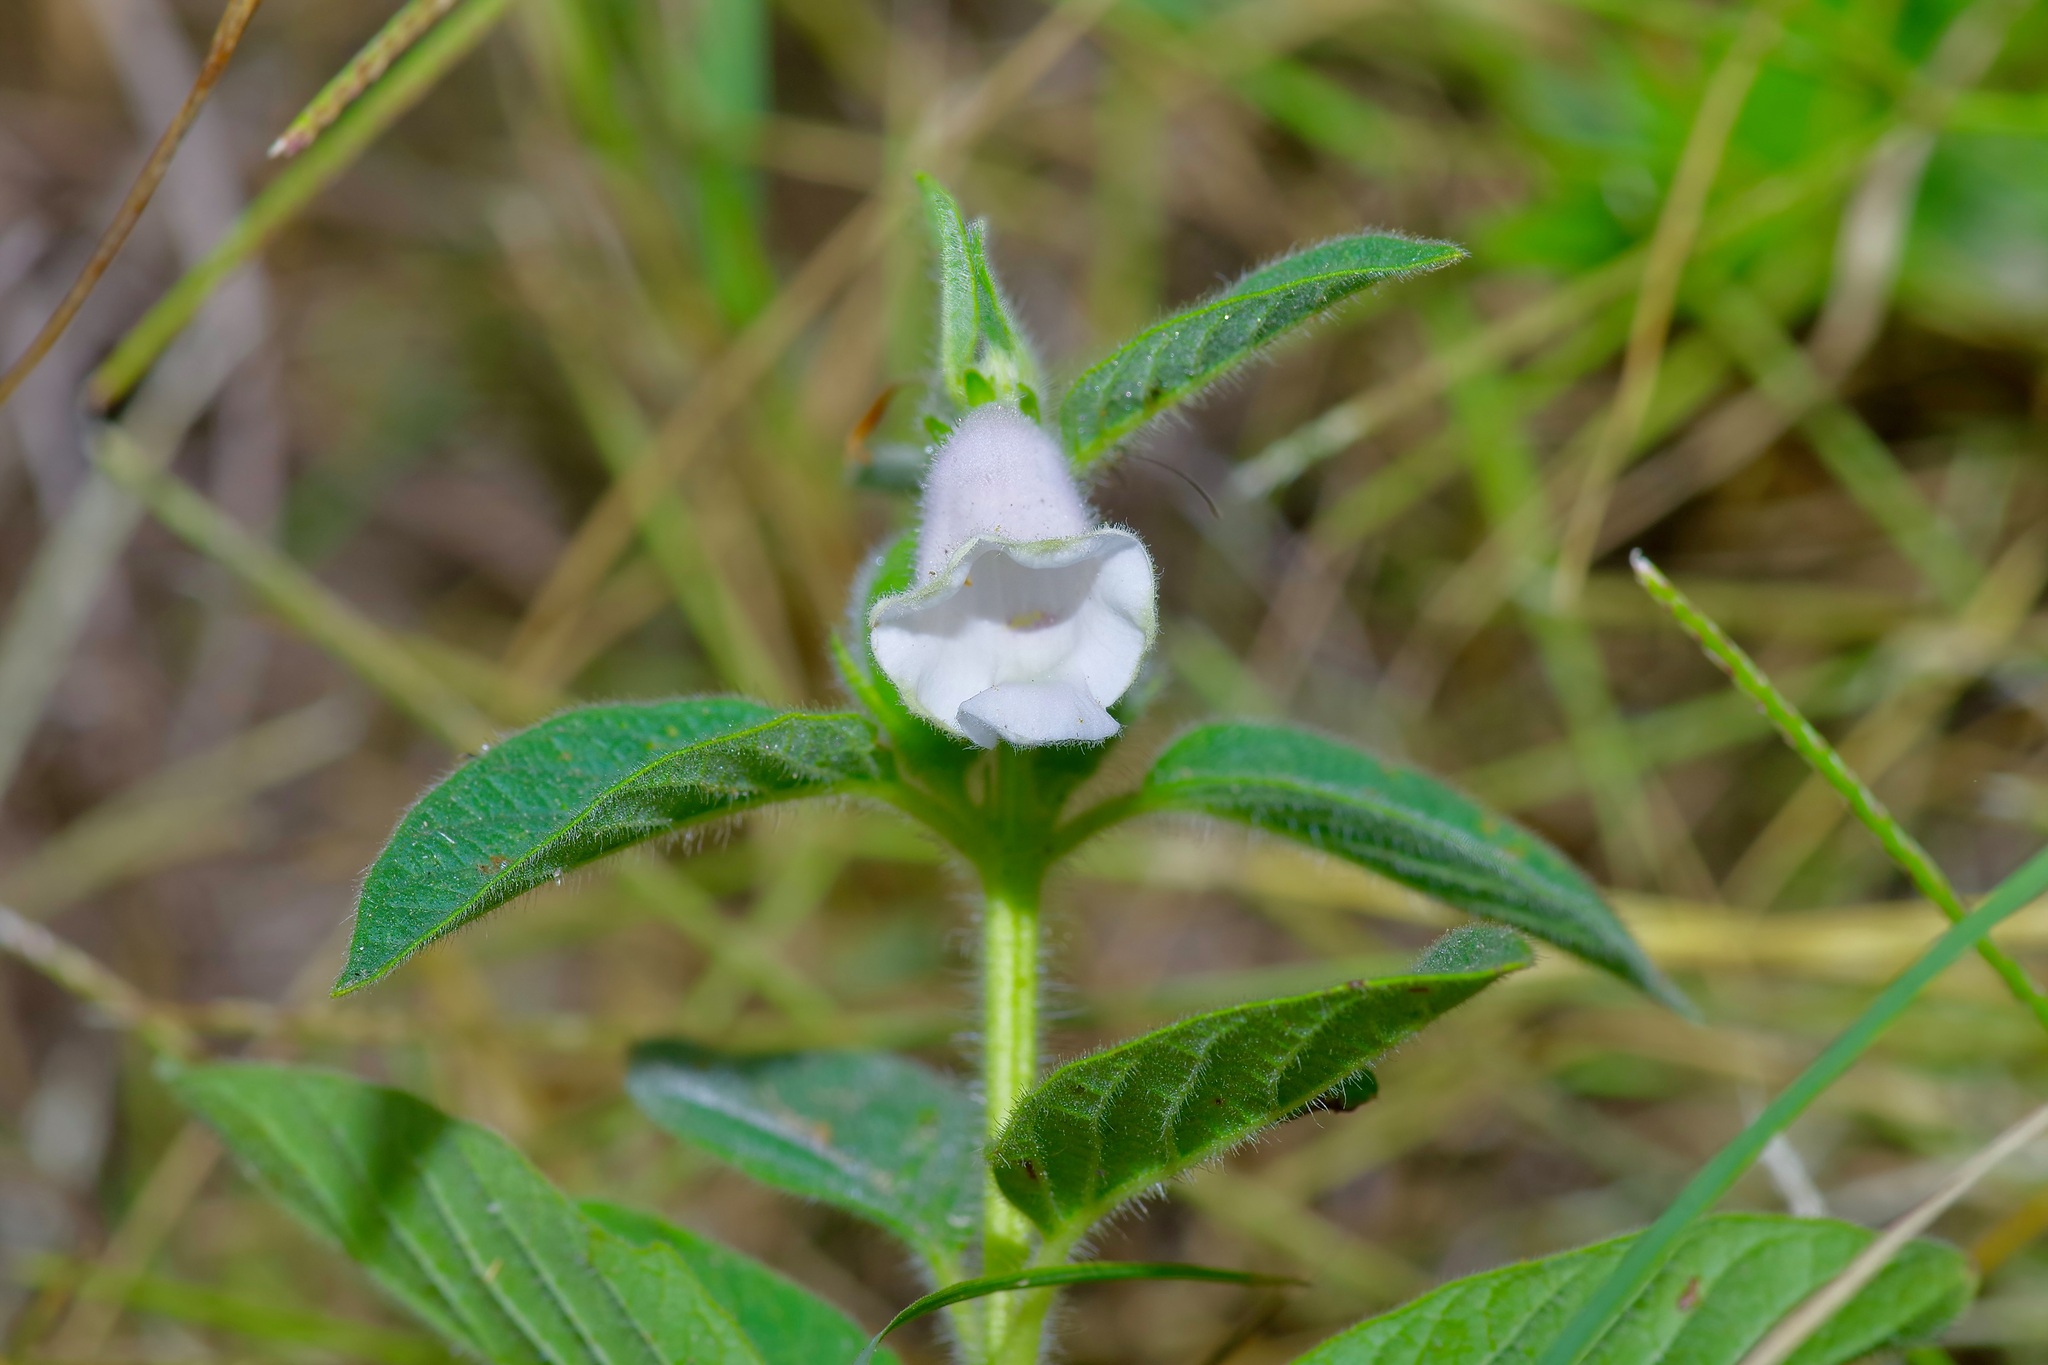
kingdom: Plantae
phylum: Tracheophyta
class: Magnoliopsida
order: Lamiales
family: Pedaliaceae
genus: Sesamum
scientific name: Sesamum indicum
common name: Sesame
